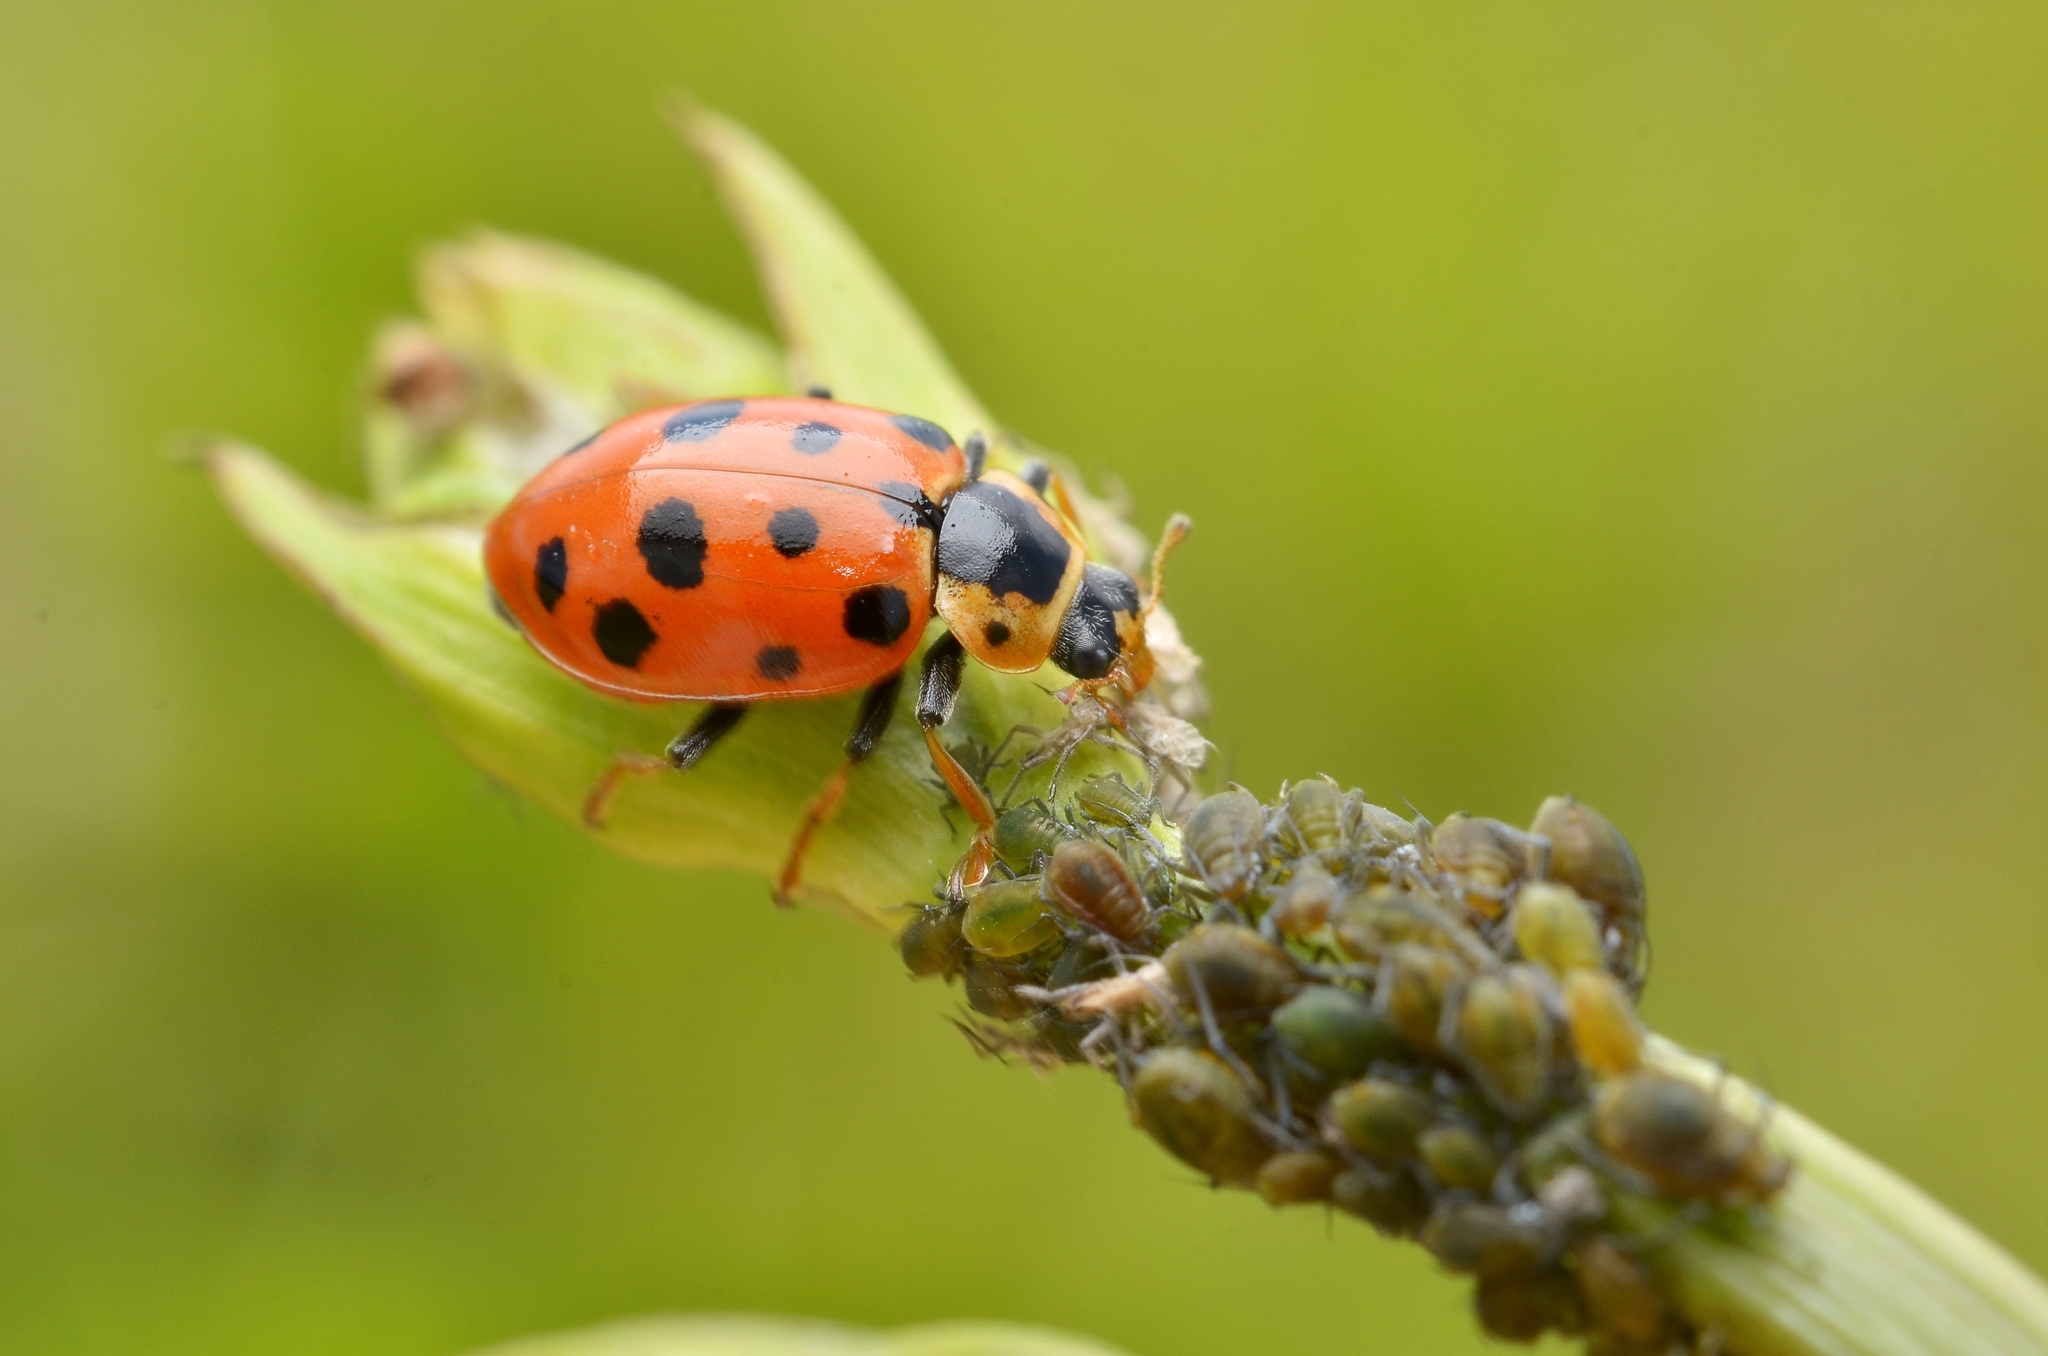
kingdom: Animalia
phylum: Arthropoda
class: Insecta
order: Coleoptera
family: Coccinellidae
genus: Hippodamia
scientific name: Hippodamia tredecimpunctata
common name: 13-spot ladybird
